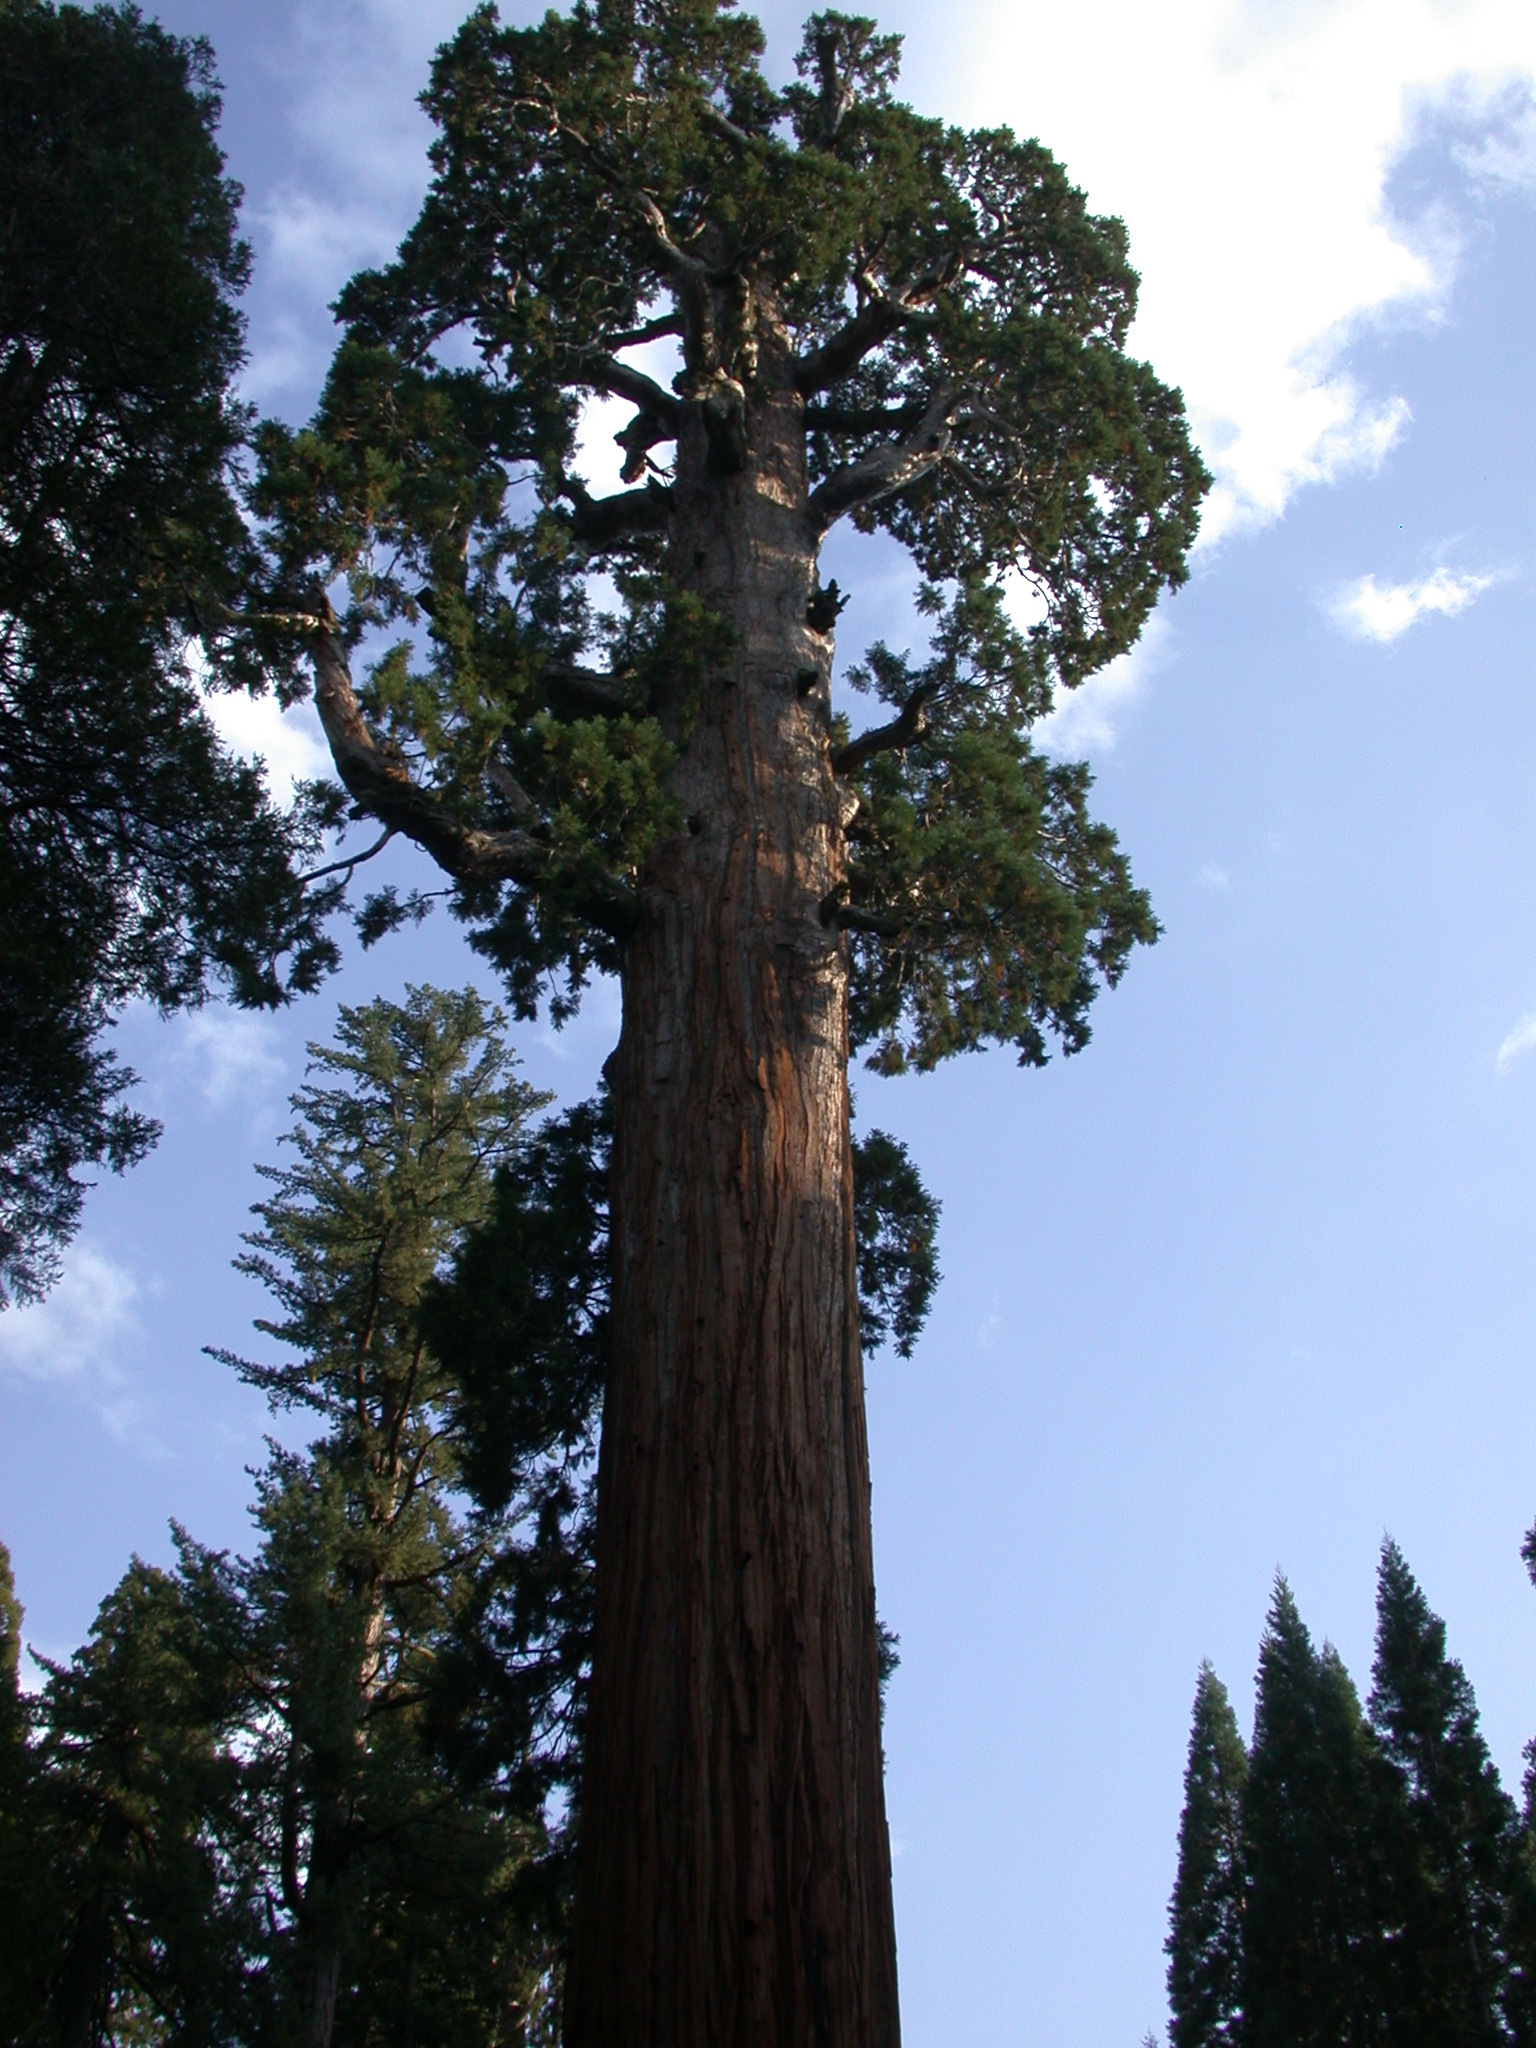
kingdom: Plantae
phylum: Tracheophyta
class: Pinopsida
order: Pinales
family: Cupressaceae
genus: Sequoiadendron
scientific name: Sequoiadendron giganteum
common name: Wellingtonia
